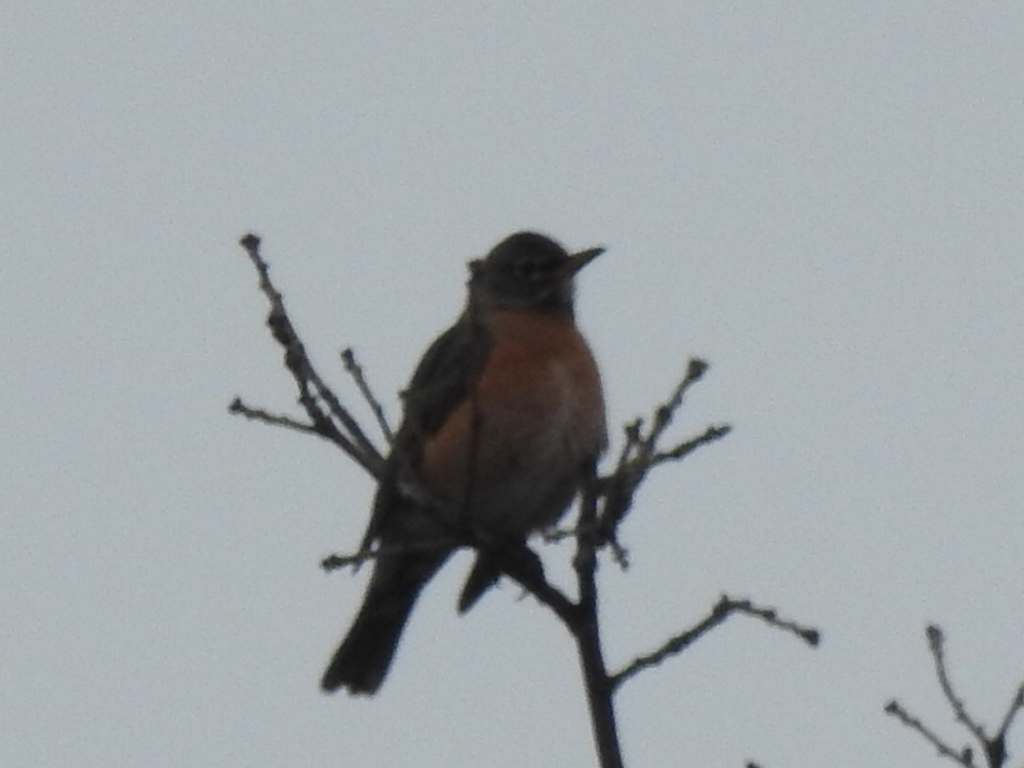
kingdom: Animalia
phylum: Chordata
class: Aves
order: Passeriformes
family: Turdidae
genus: Turdus
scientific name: Turdus migratorius
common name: American robin
